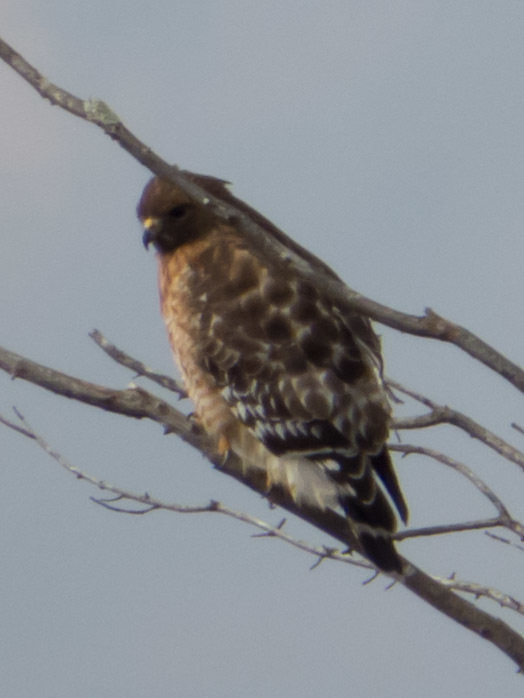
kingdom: Animalia
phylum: Chordata
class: Aves
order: Accipitriformes
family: Accipitridae
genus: Buteo
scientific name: Buteo lineatus
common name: Red-shouldered hawk
